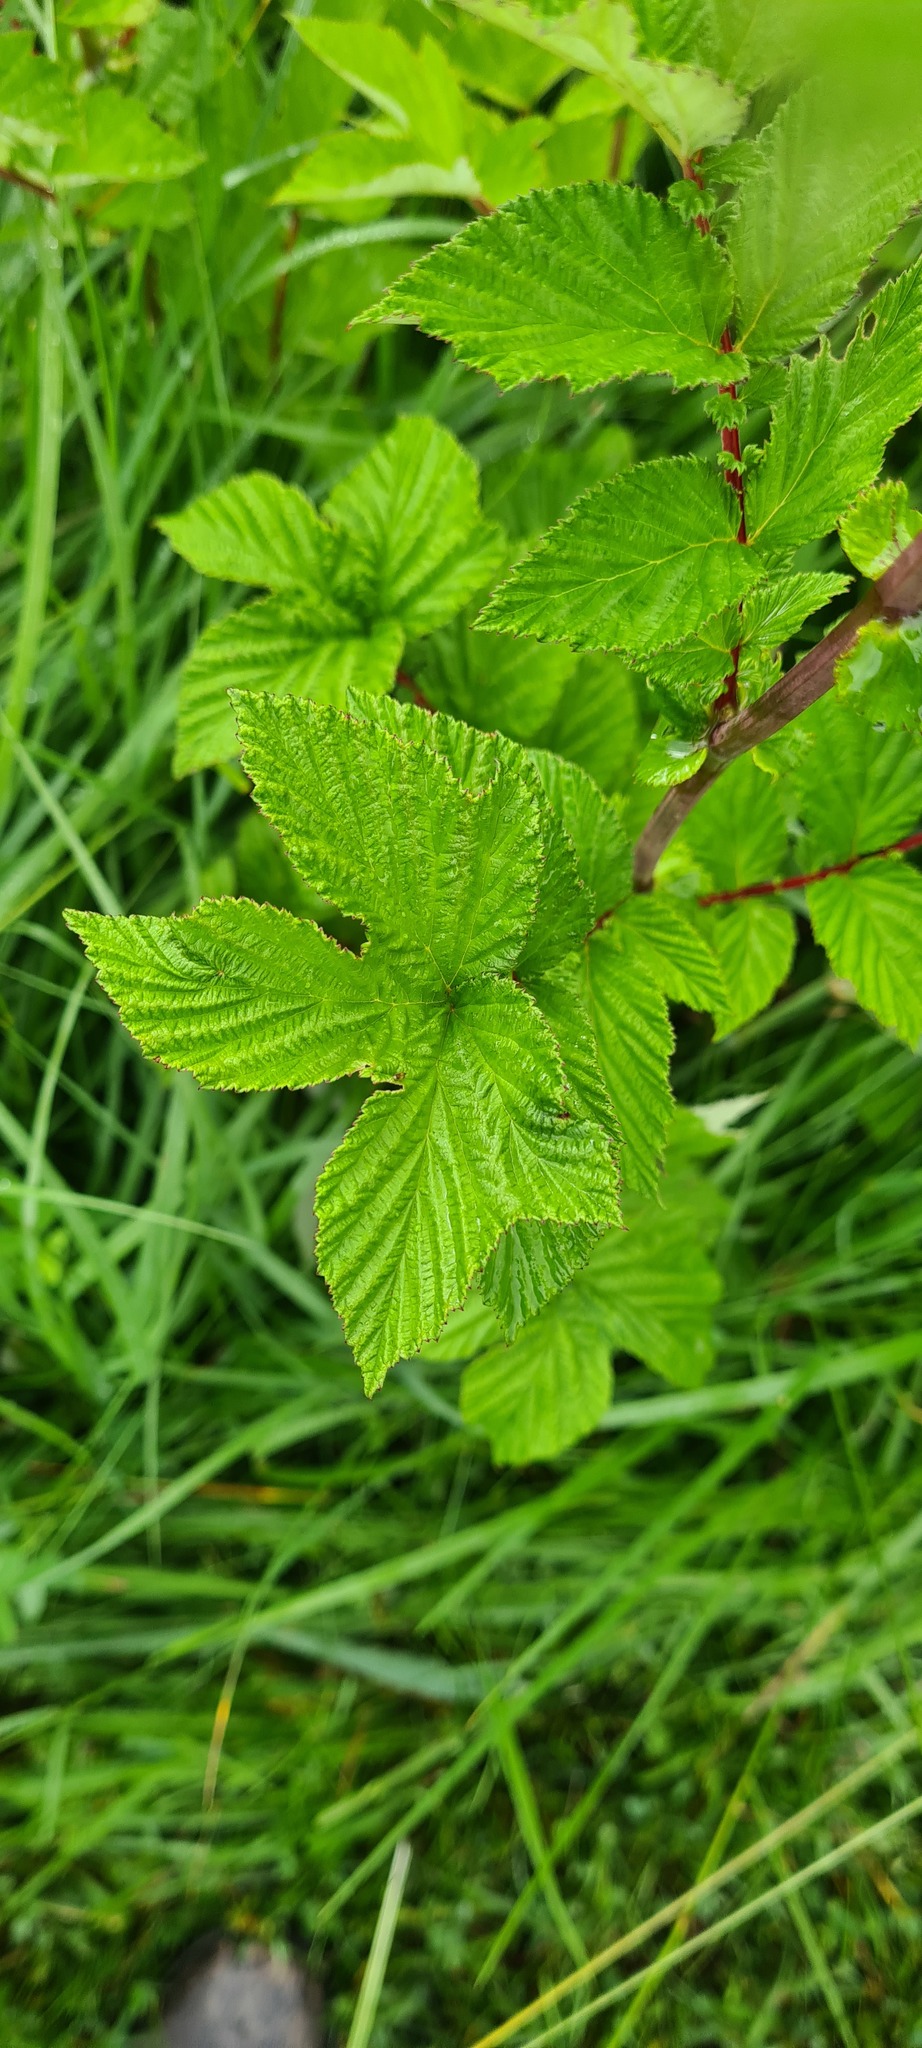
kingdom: Plantae
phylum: Tracheophyta
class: Magnoliopsida
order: Rosales
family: Rosaceae
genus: Filipendula
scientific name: Filipendula ulmaria
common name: Meadowsweet
